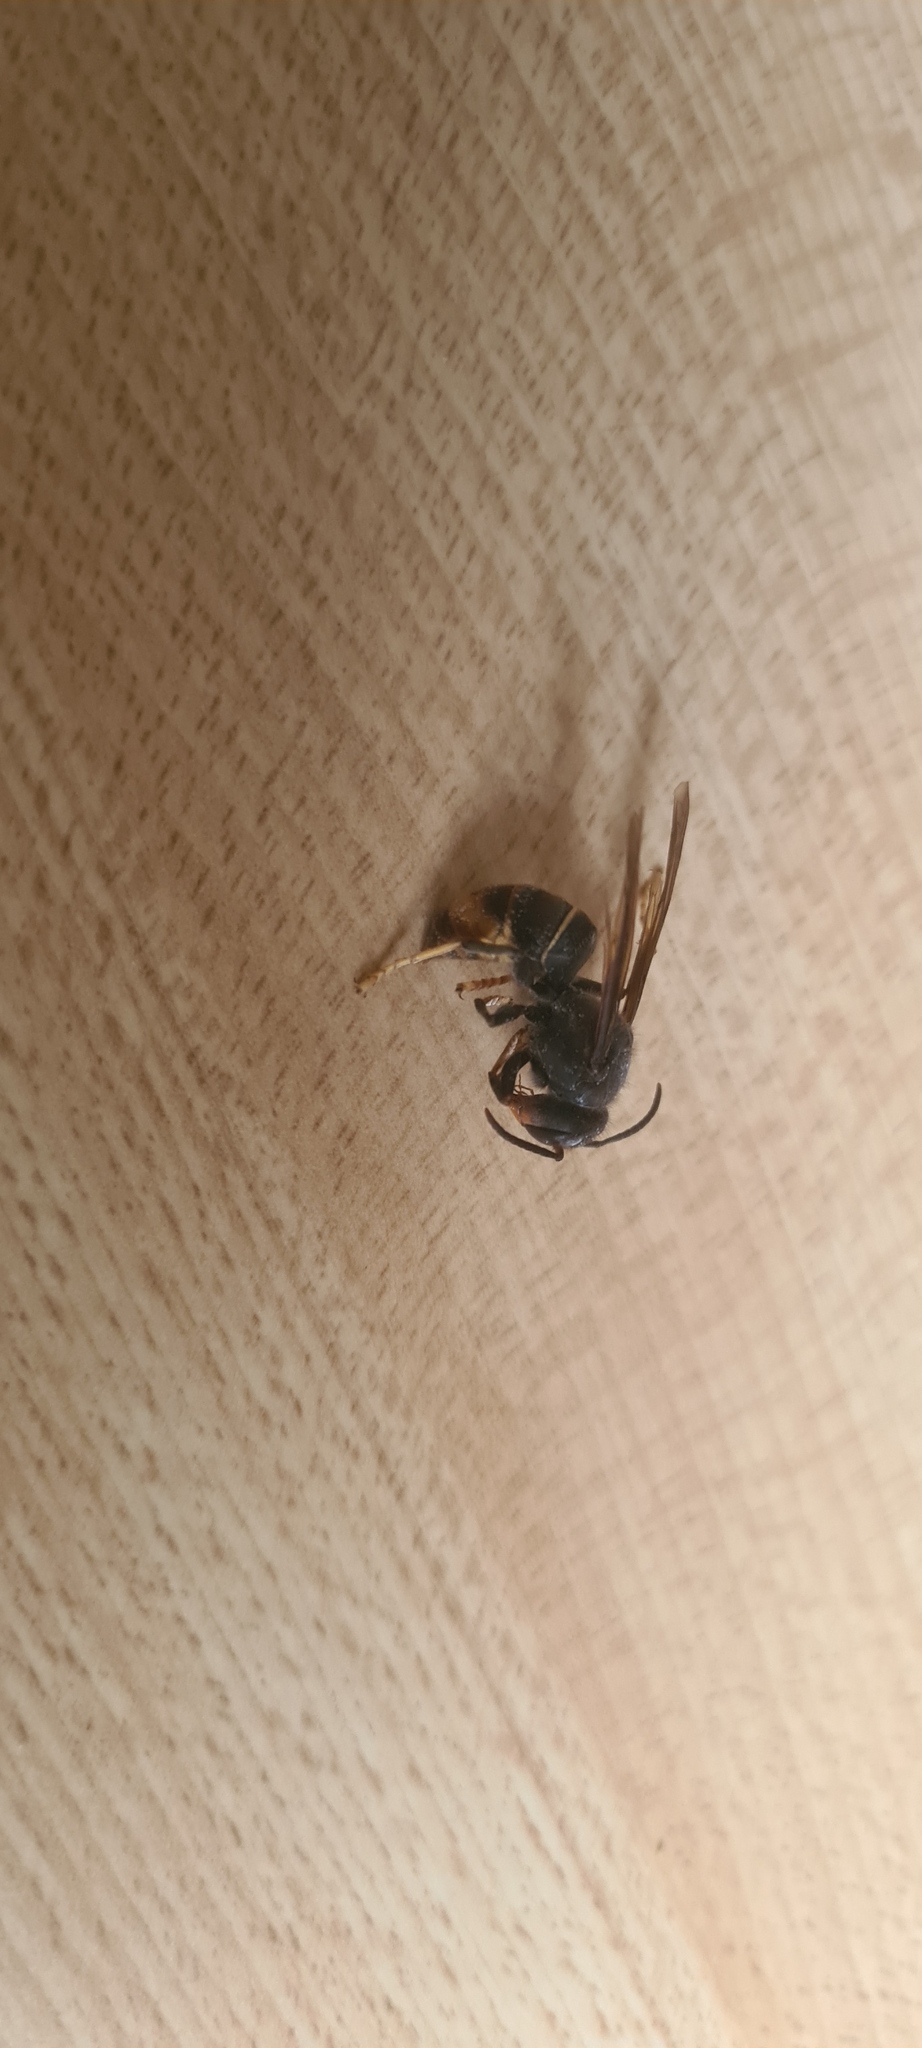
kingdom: Animalia
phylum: Arthropoda
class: Insecta
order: Hymenoptera
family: Vespidae
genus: Vespa
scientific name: Vespa velutina
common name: Asian hornet
